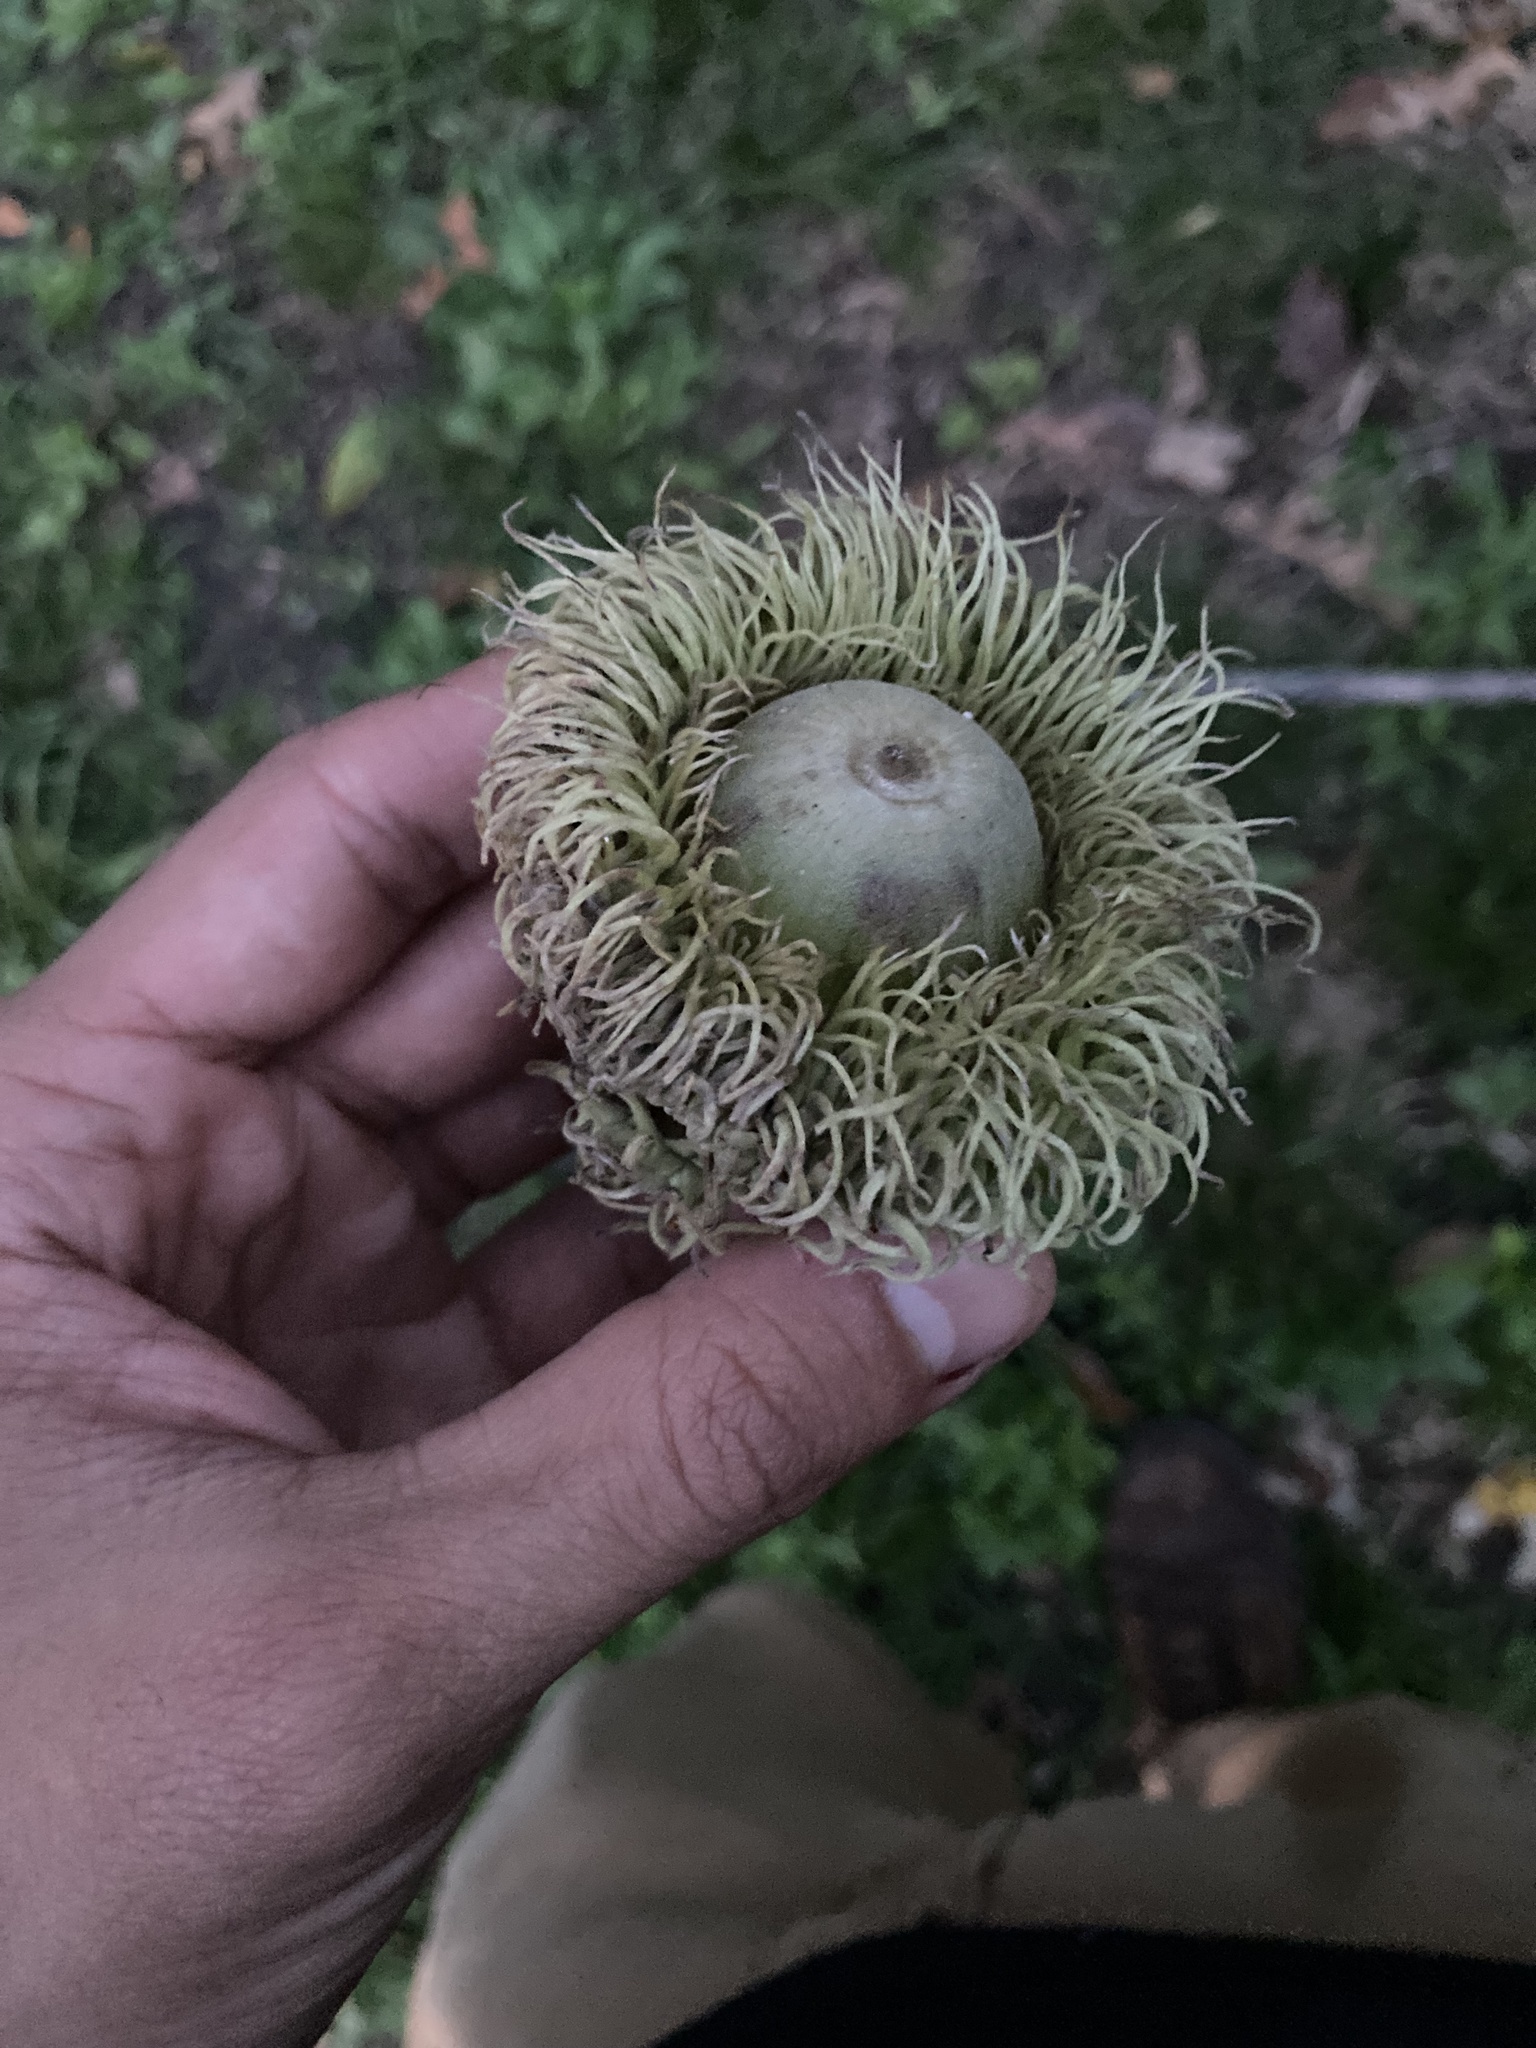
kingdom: Plantae
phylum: Tracheophyta
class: Magnoliopsida
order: Fagales
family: Fagaceae
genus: Quercus
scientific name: Quercus macrocarpa
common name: Bur oak
